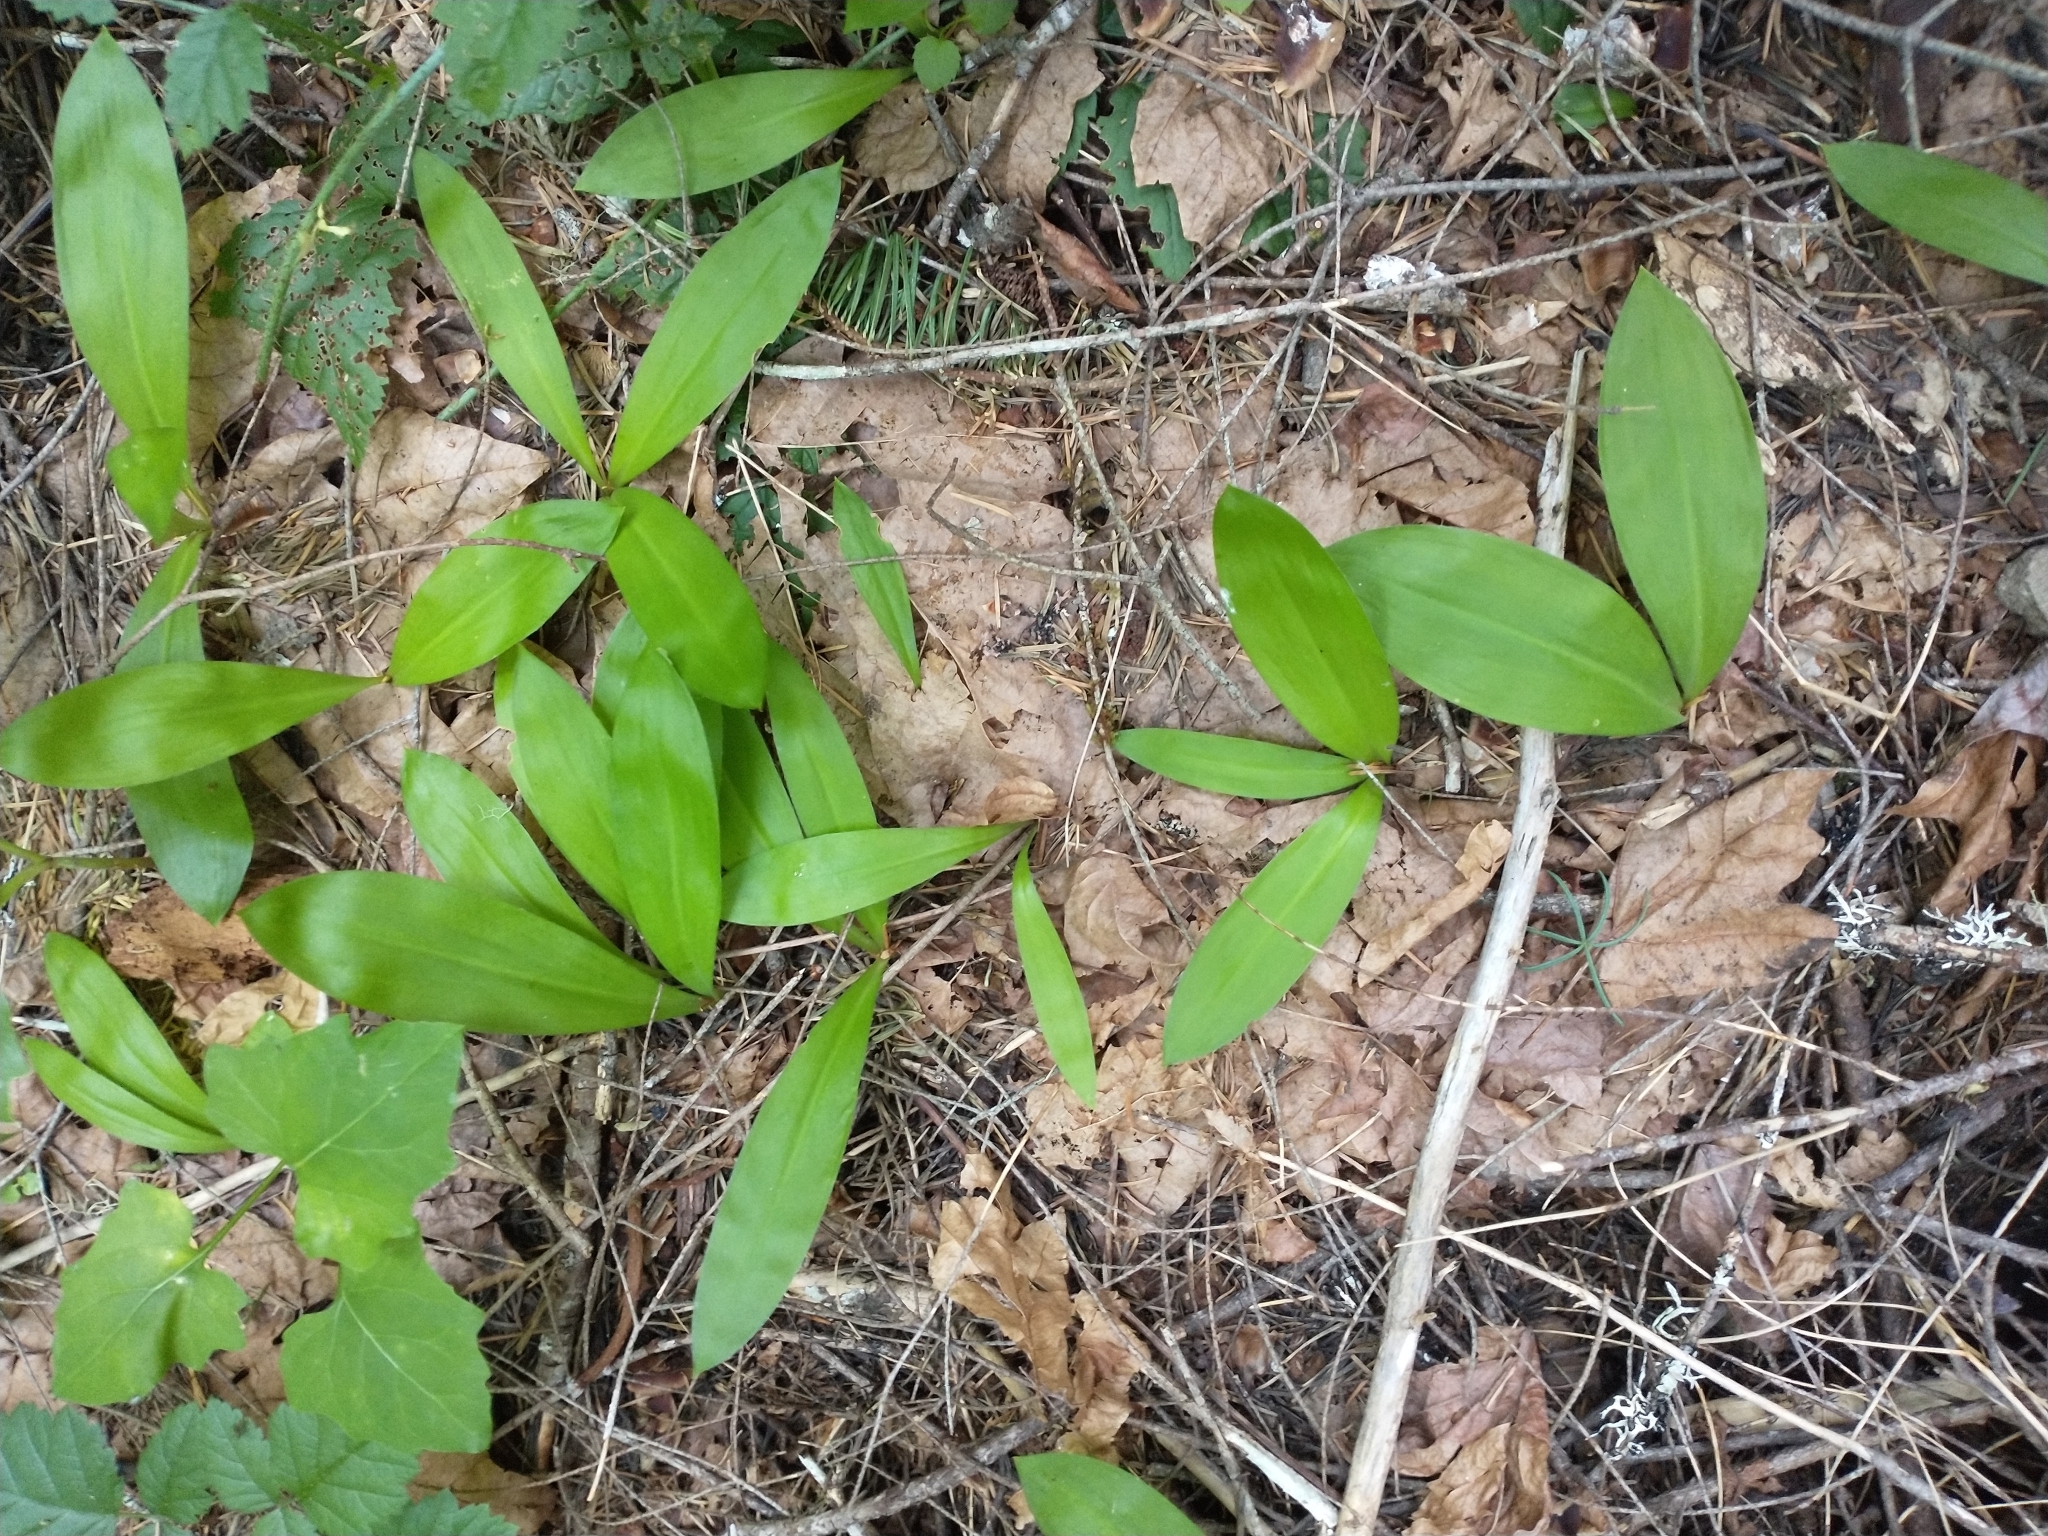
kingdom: Plantae
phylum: Tracheophyta
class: Liliopsida
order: Liliales
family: Liliaceae
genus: Clintonia
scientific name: Clintonia uniflora
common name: Queen's cup
